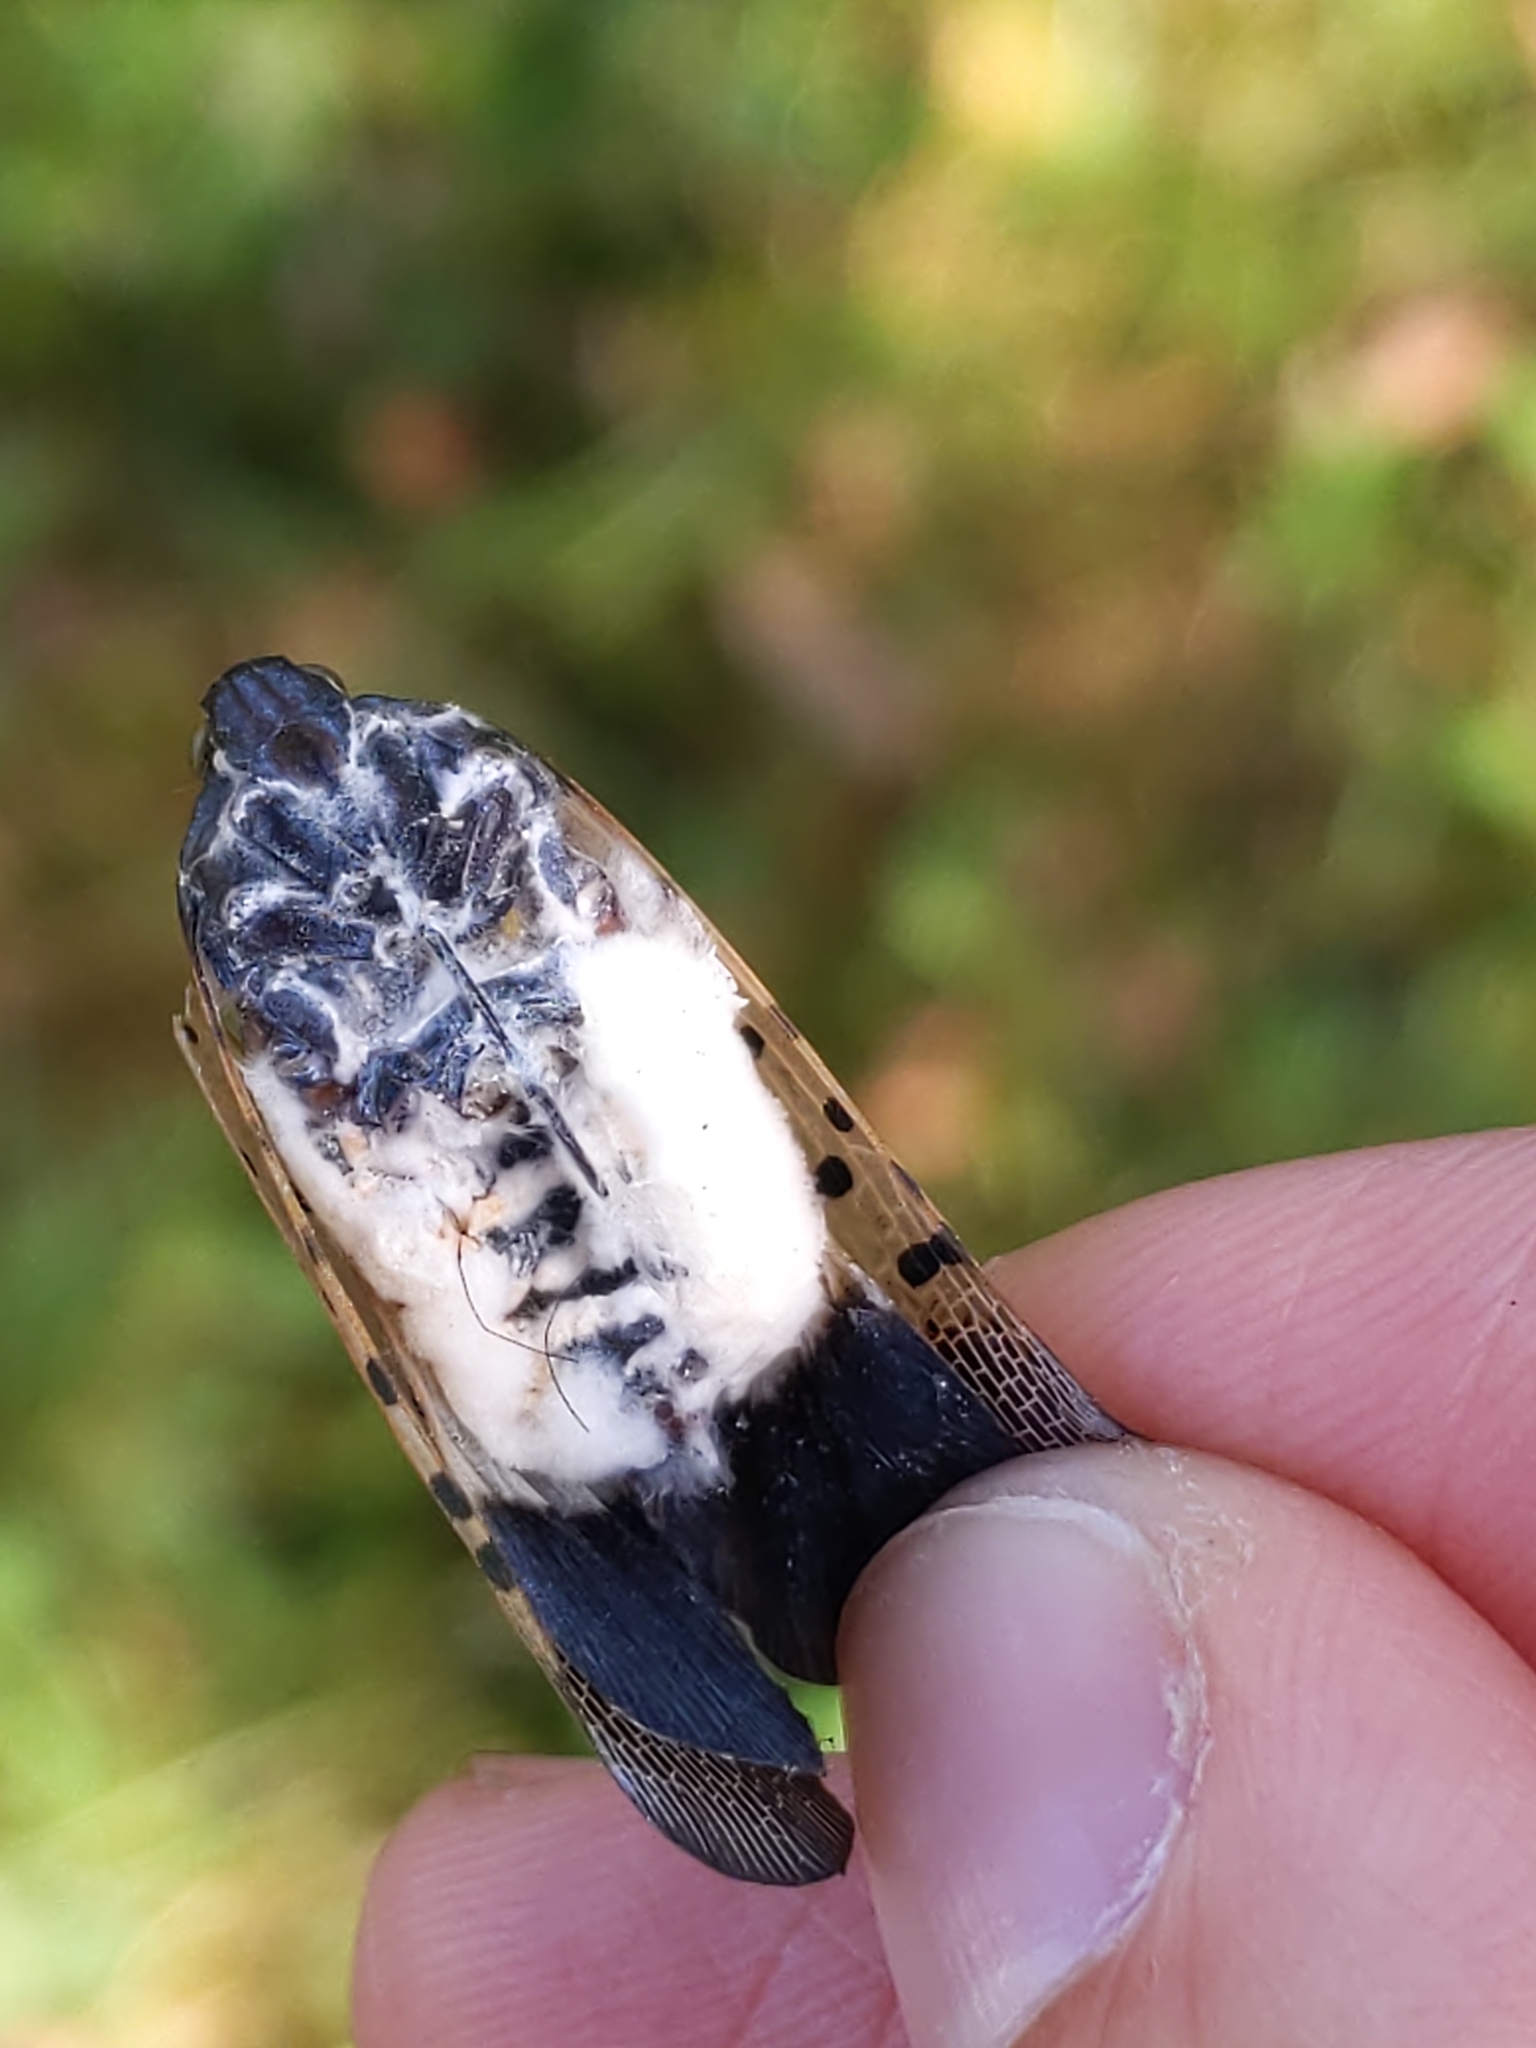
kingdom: Fungi
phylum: Ascomycota
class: Sordariomycetes
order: Hypocreales
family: Cordycipitaceae
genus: Beauveria
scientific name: Beauveria bassiana
